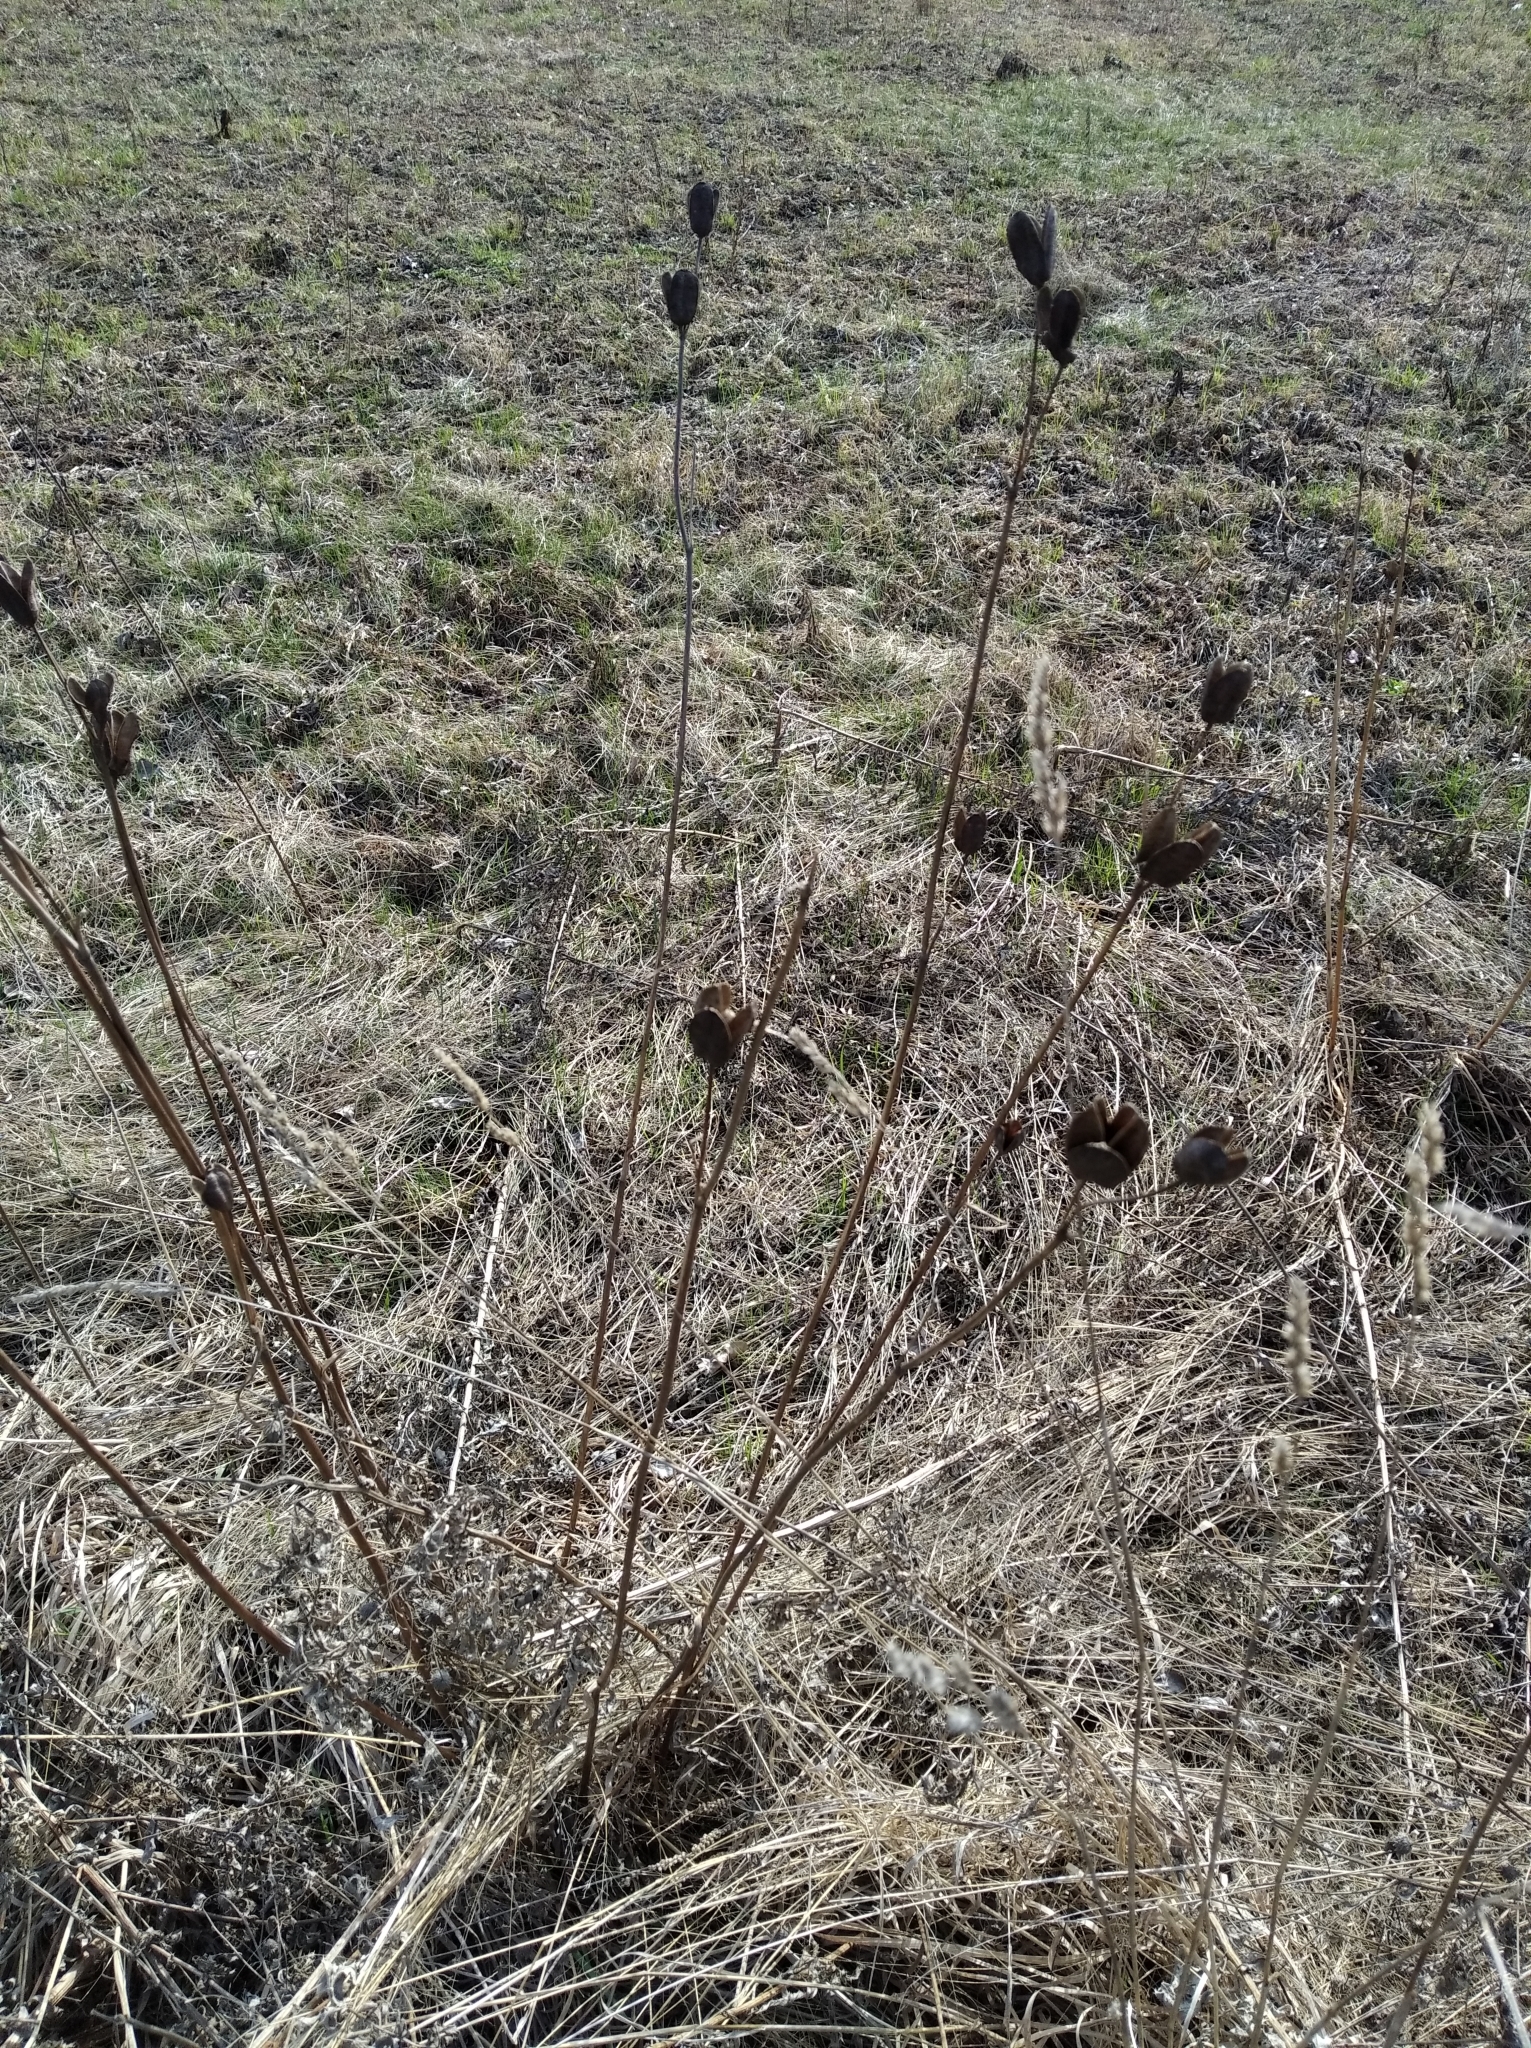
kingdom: Plantae
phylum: Tracheophyta
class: Liliopsida
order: Asparagales
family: Iridaceae
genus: Iris
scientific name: Iris sibirica
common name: Siberian iris
